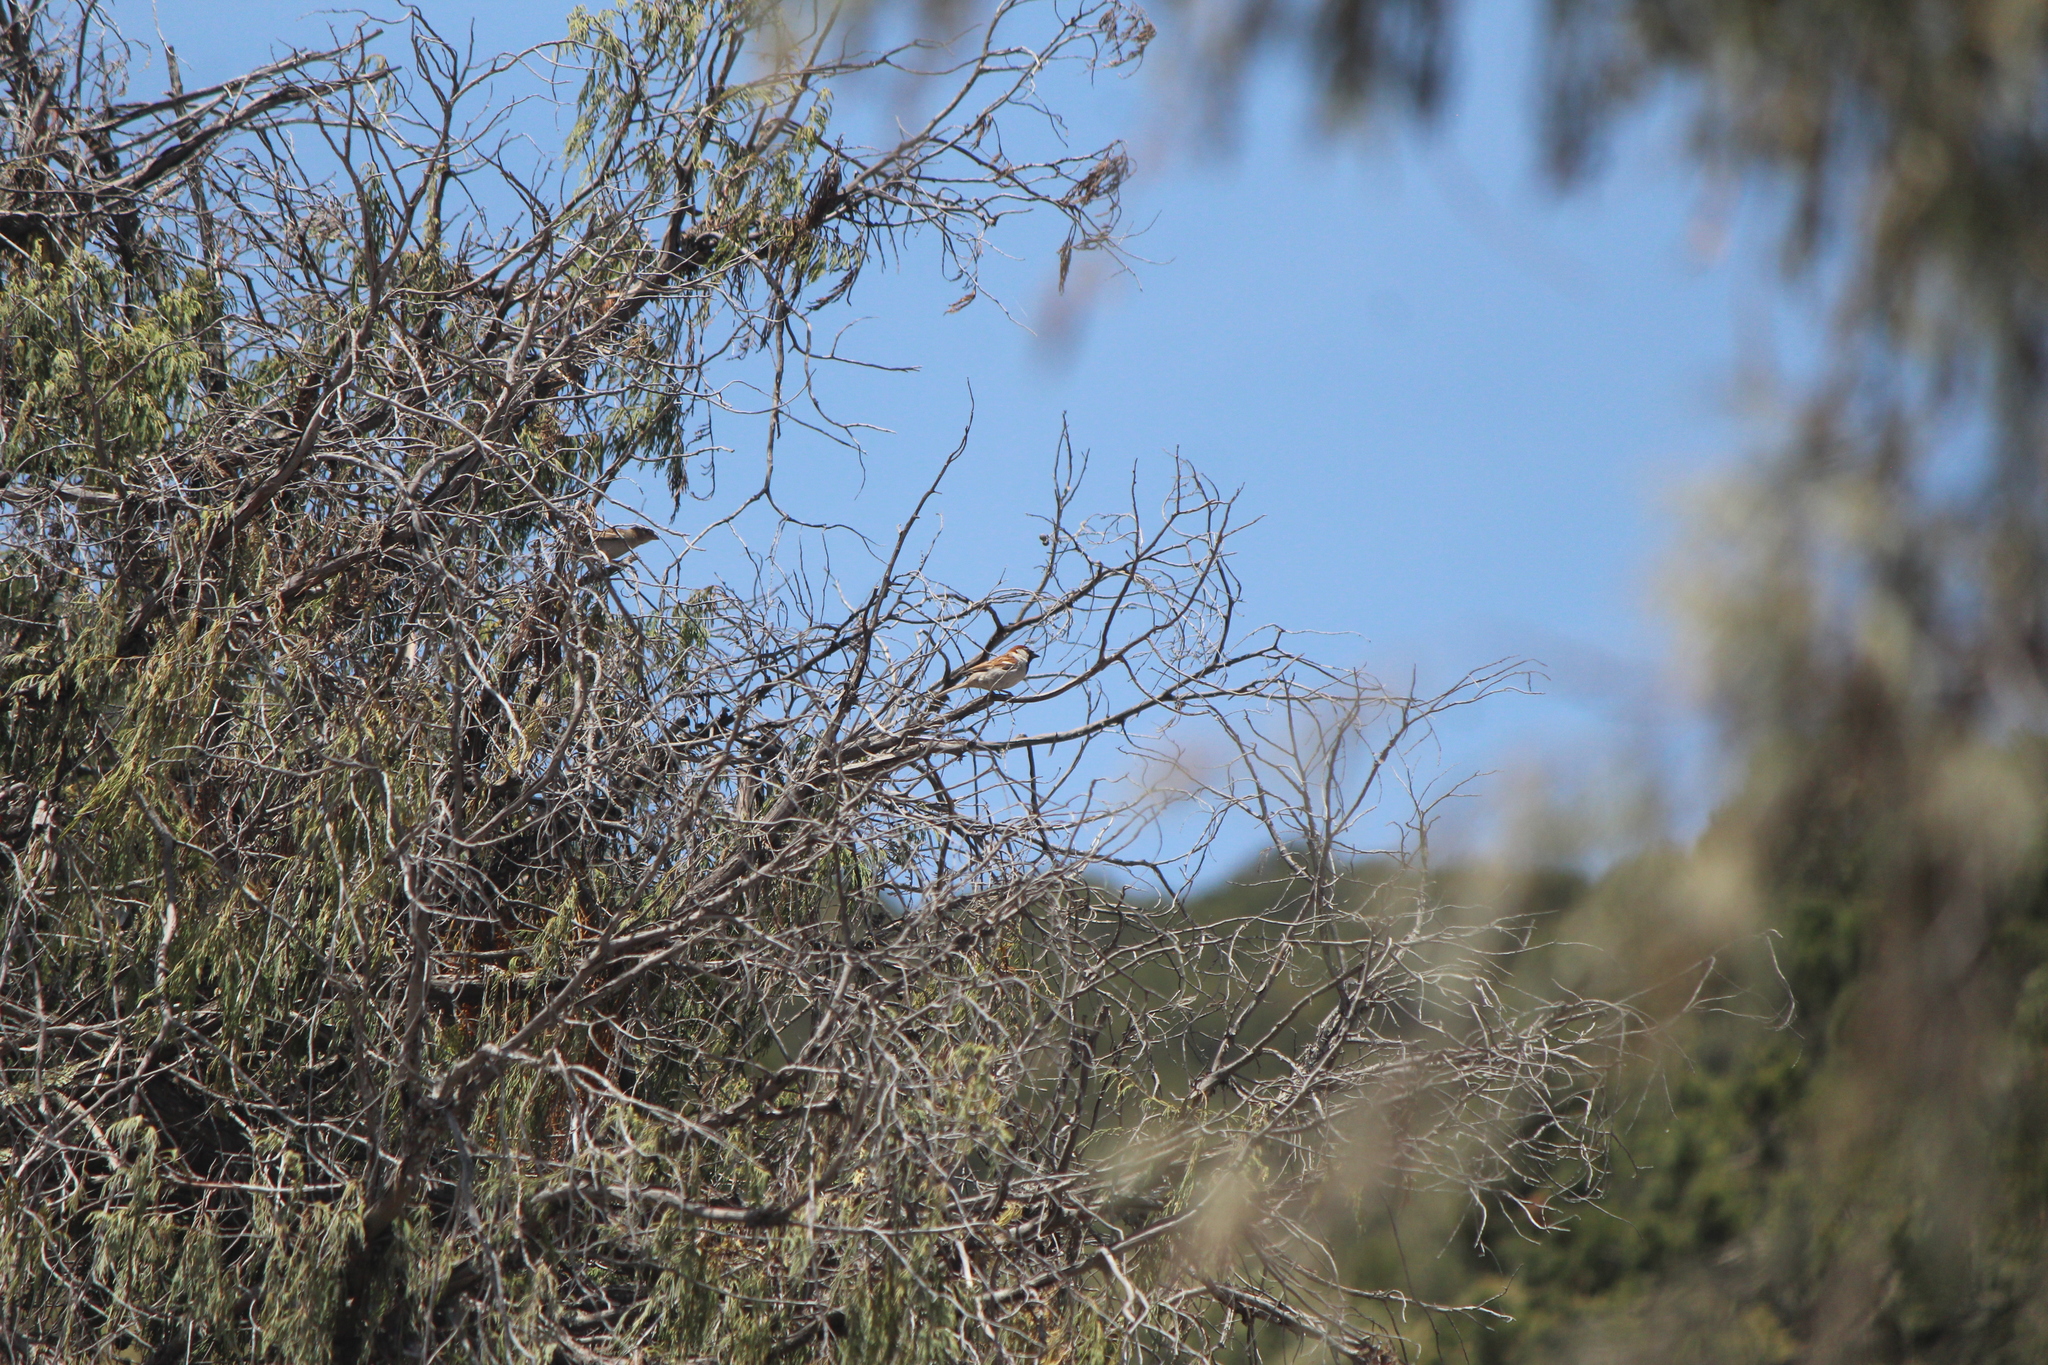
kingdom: Animalia
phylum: Chordata
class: Aves
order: Passeriformes
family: Passeridae
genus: Passer
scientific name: Passer domesticus
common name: House sparrow
